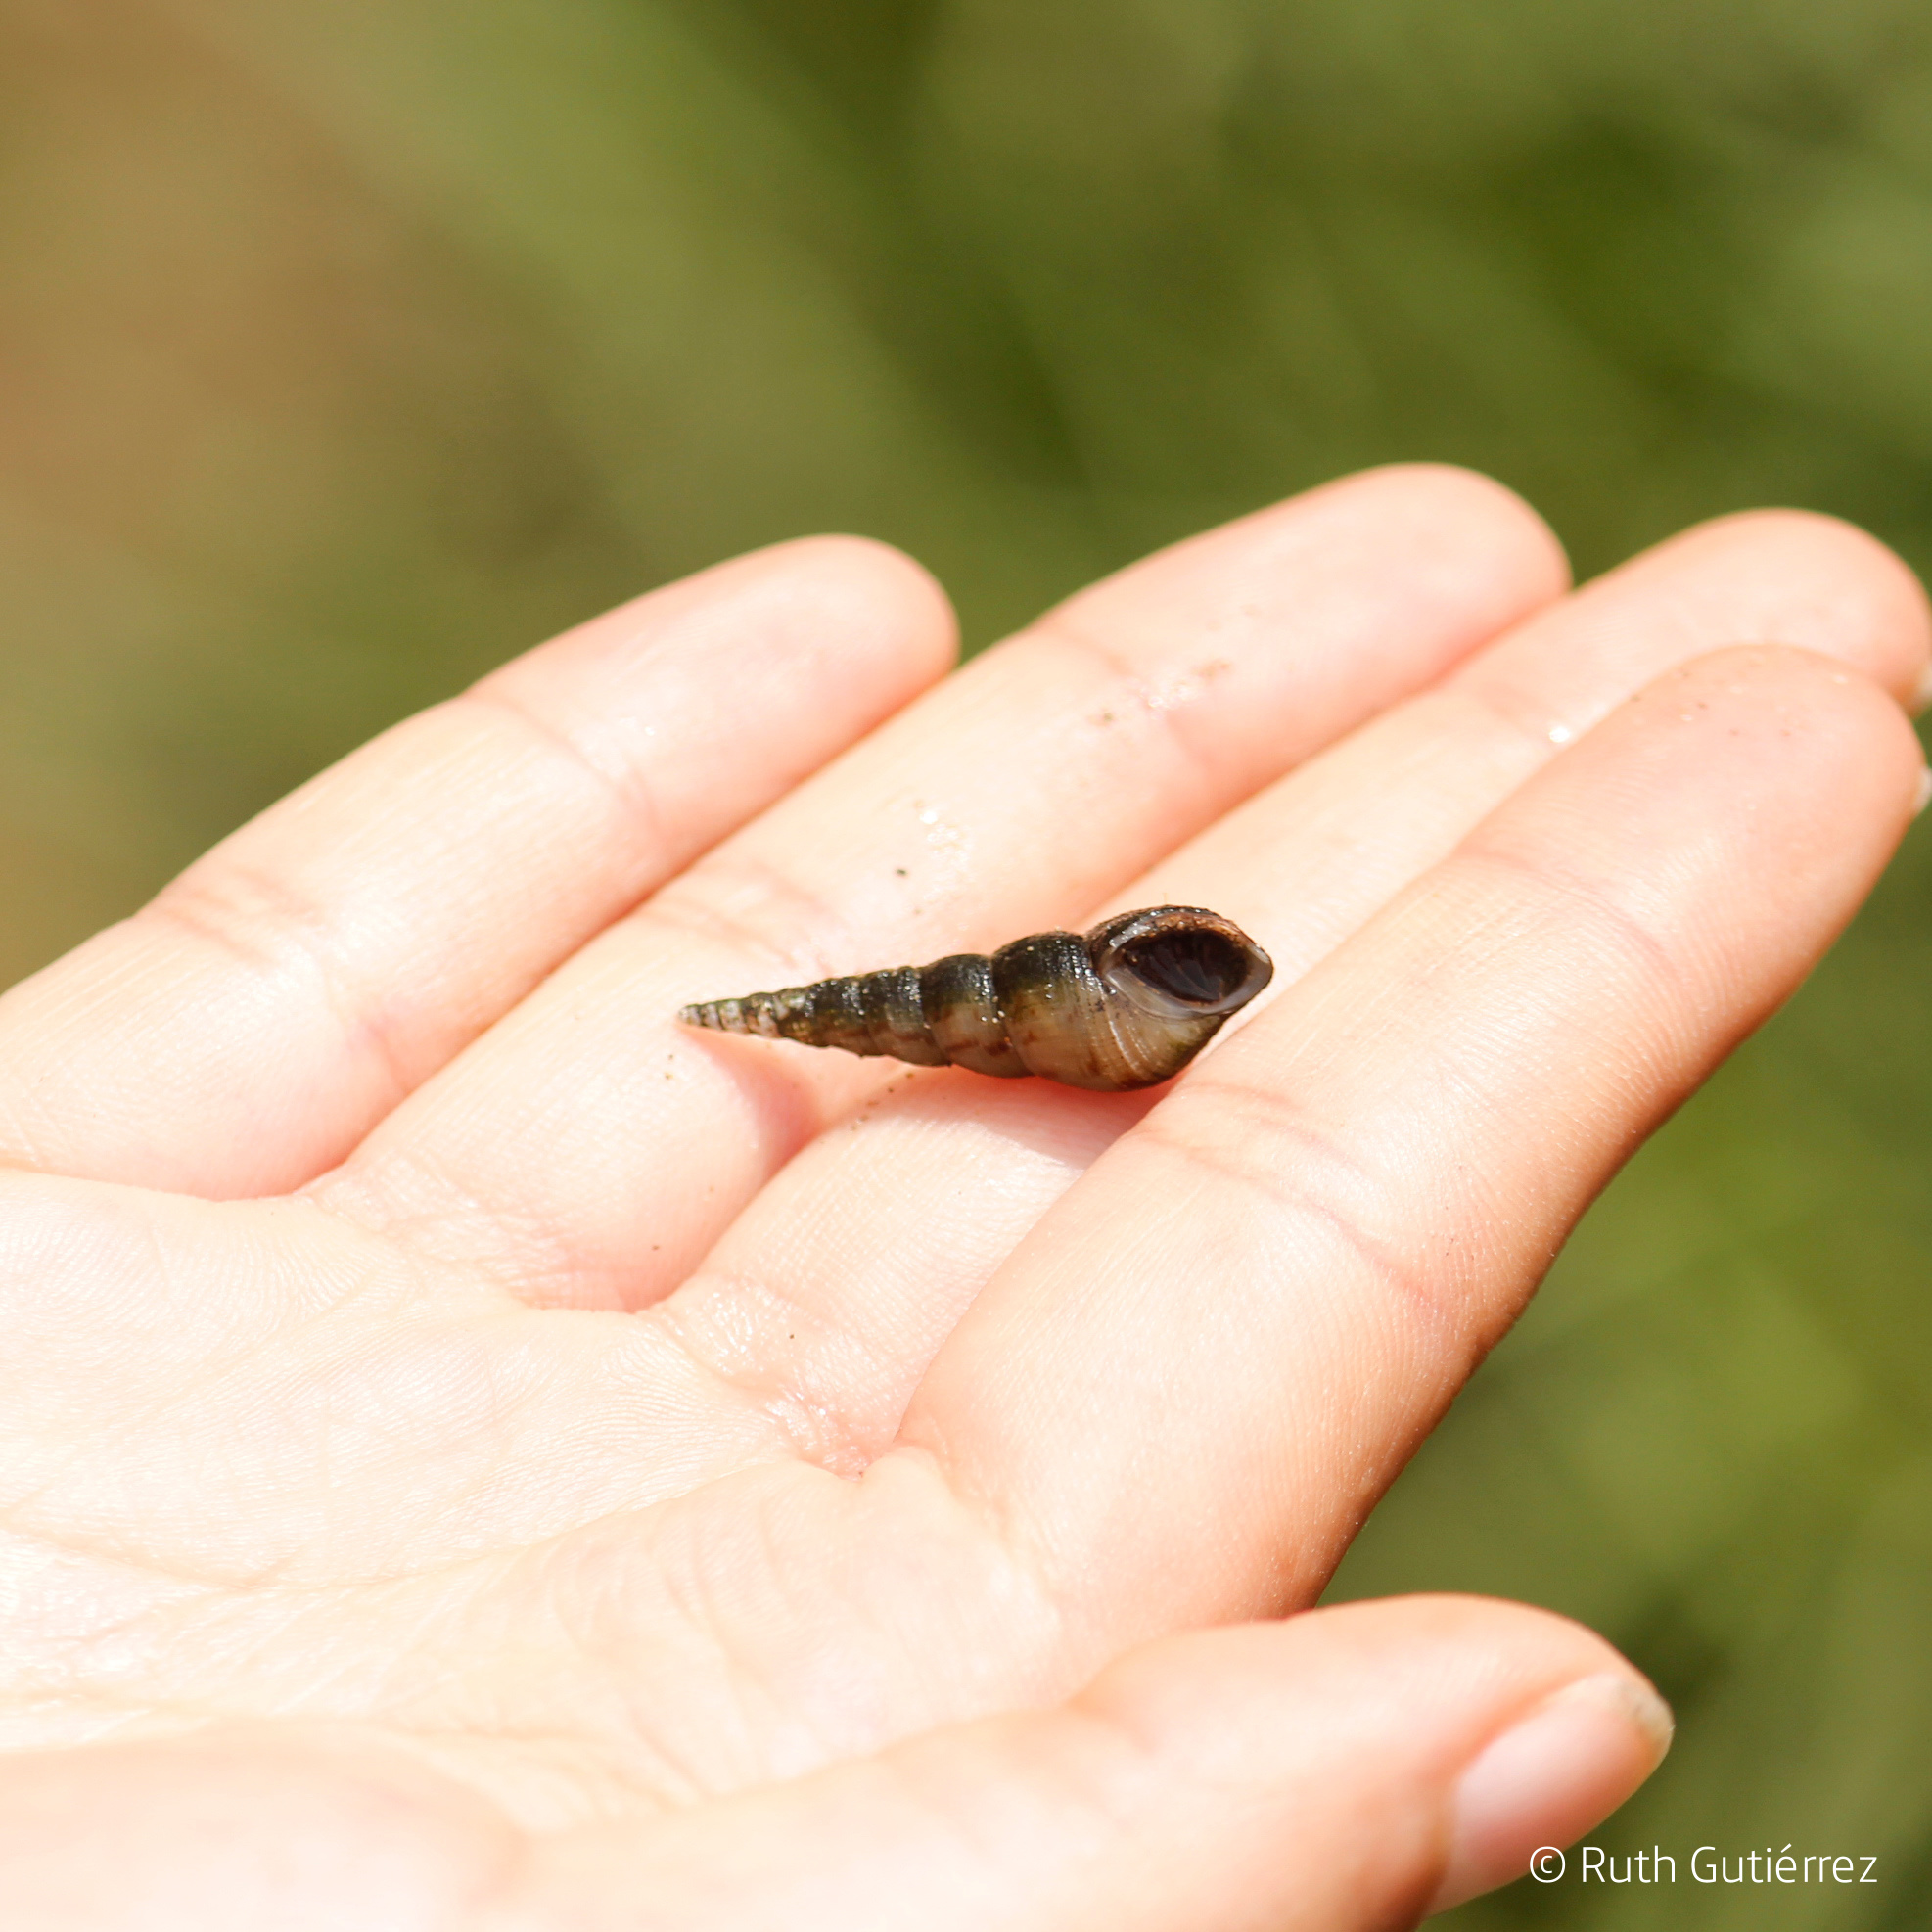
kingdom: Animalia
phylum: Mollusca
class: Gastropoda
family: Thiaridae
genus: Melanoides
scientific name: Melanoides tuberculata
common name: Red-rim melania
